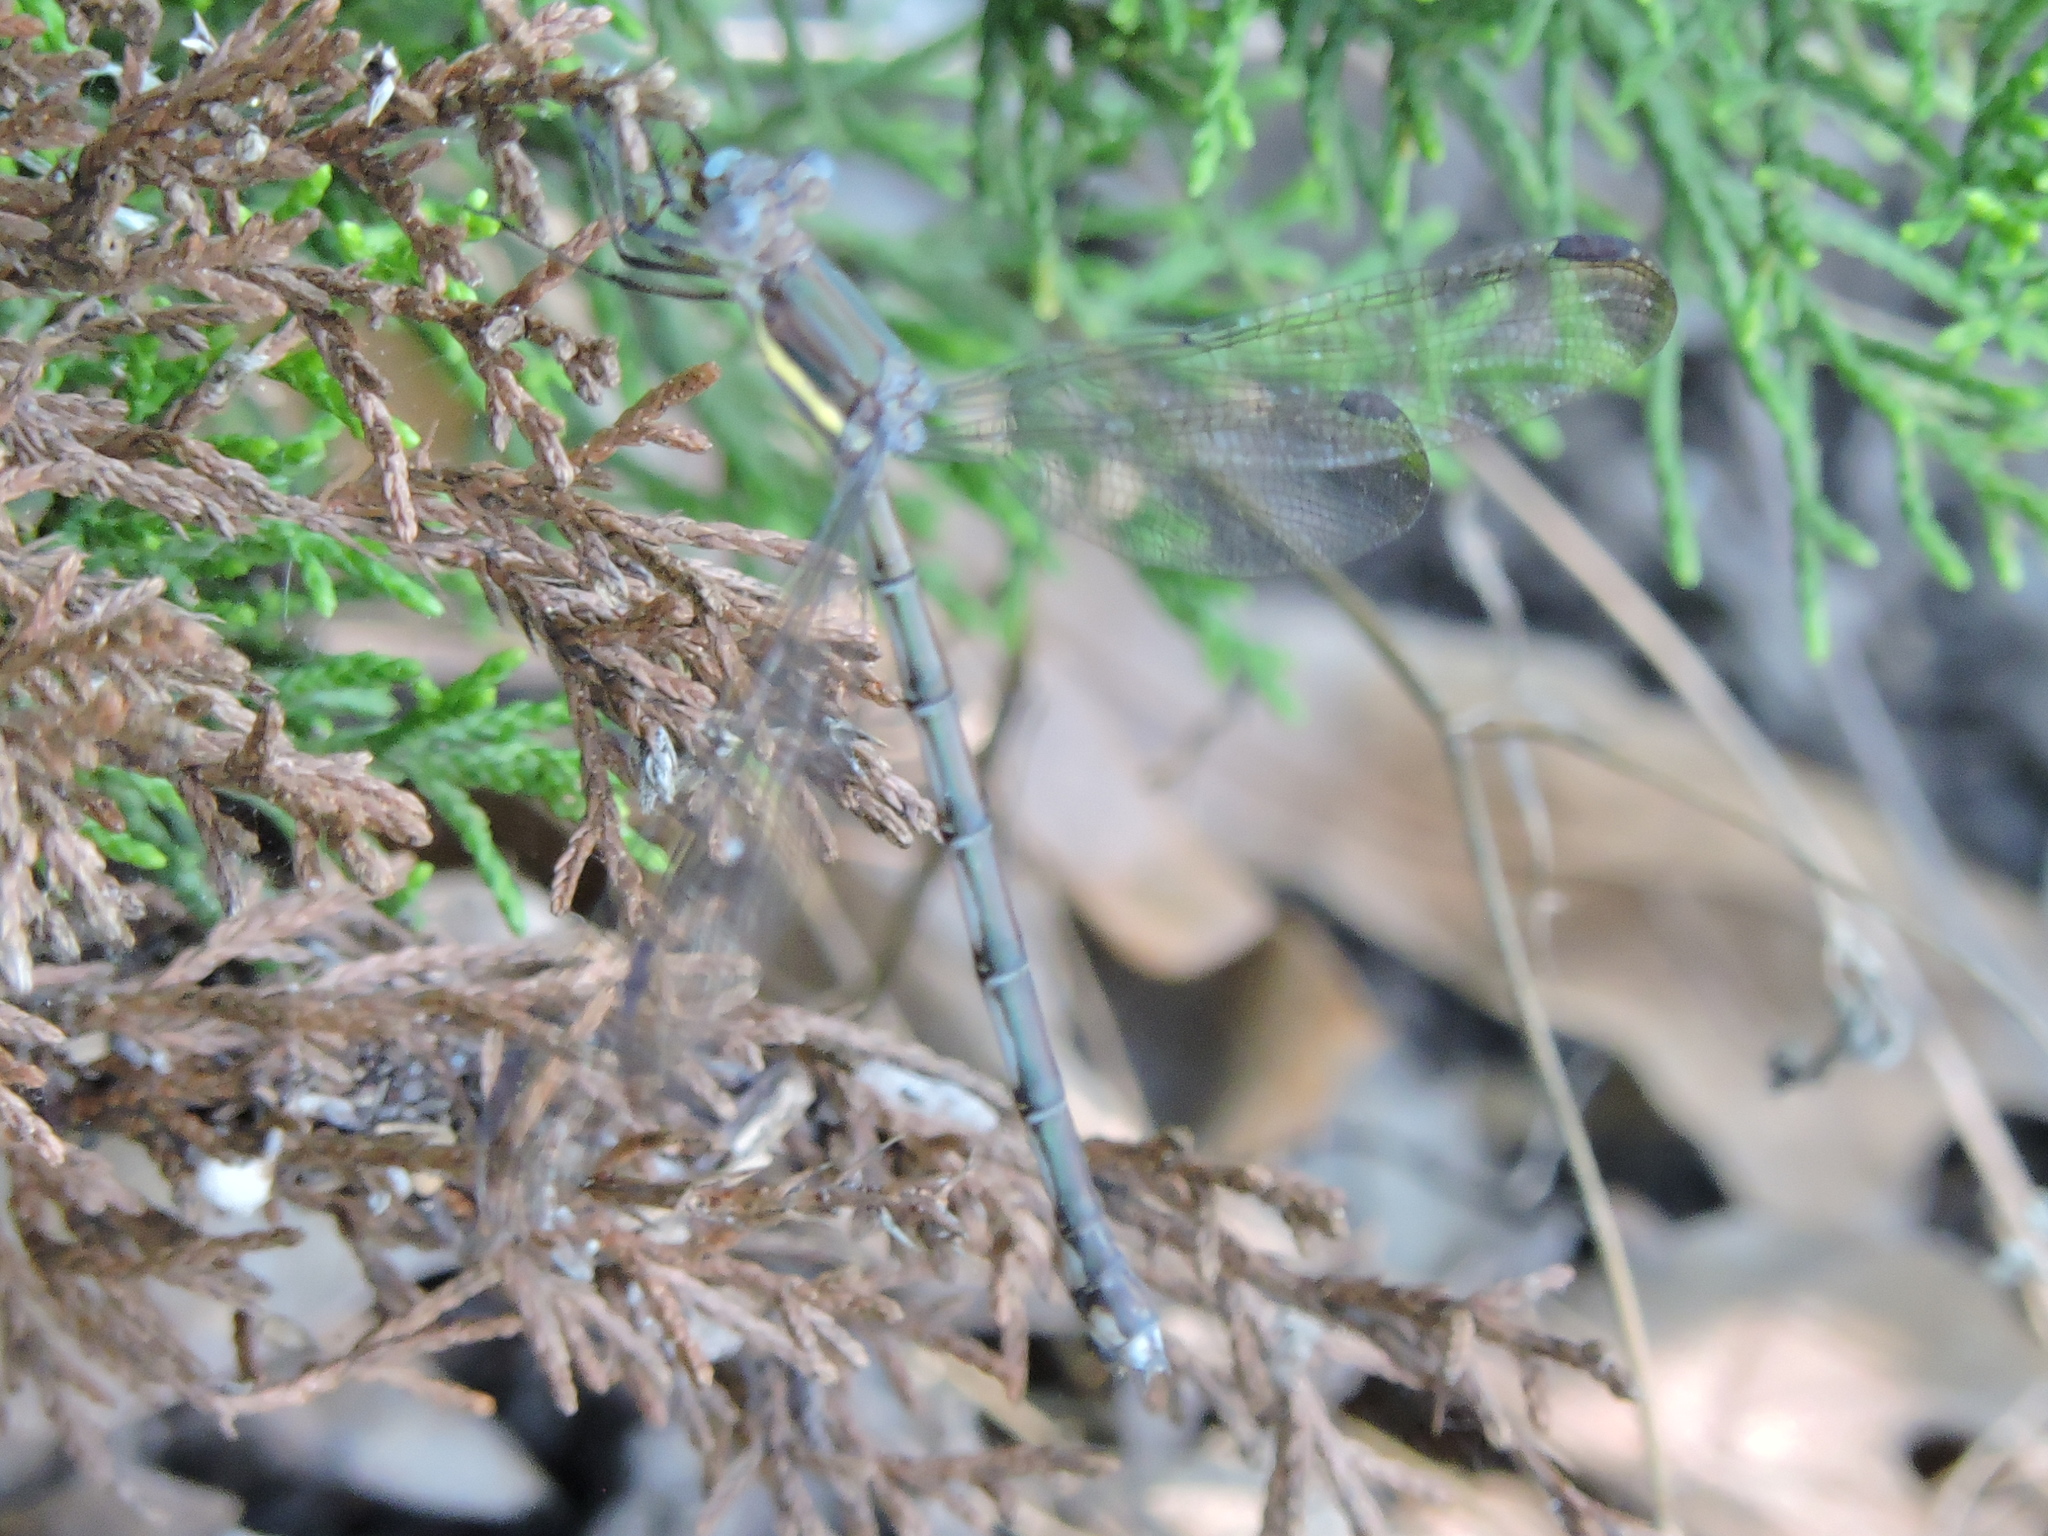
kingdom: Animalia
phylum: Arthropoda
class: Insecta
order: Odonata
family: Lestidae
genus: Archilestes
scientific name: Archilestes grandis
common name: Great spreadwing
